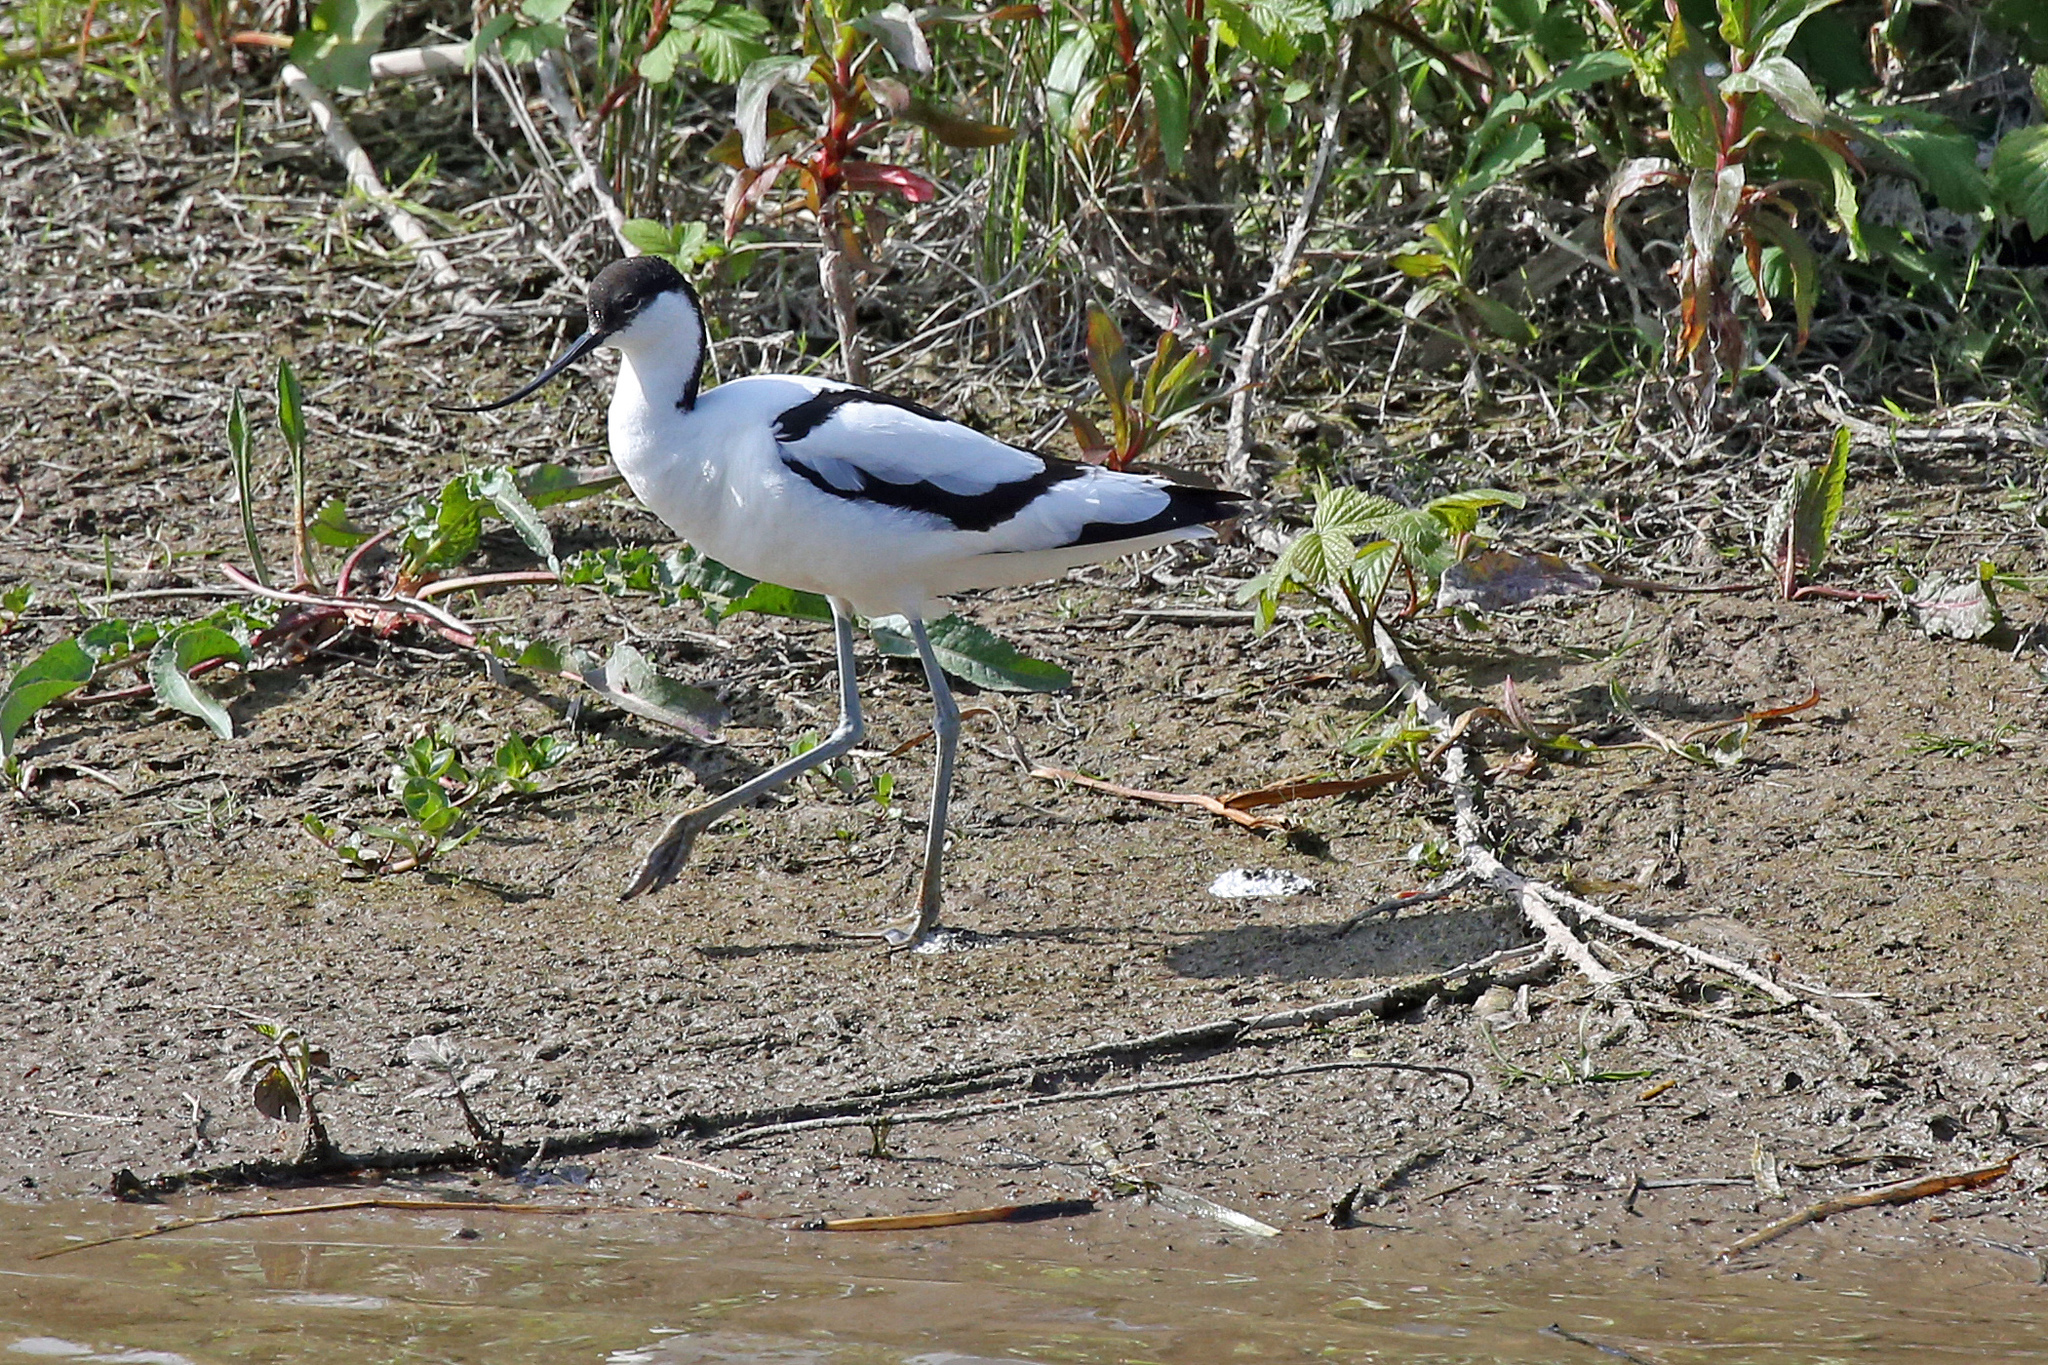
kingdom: Animalia
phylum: Chordata
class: Aves
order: Charadriiformes
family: Recurvirostridae
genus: Recurvirostra
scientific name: Recurvirostra avosetta
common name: Pied avocet
